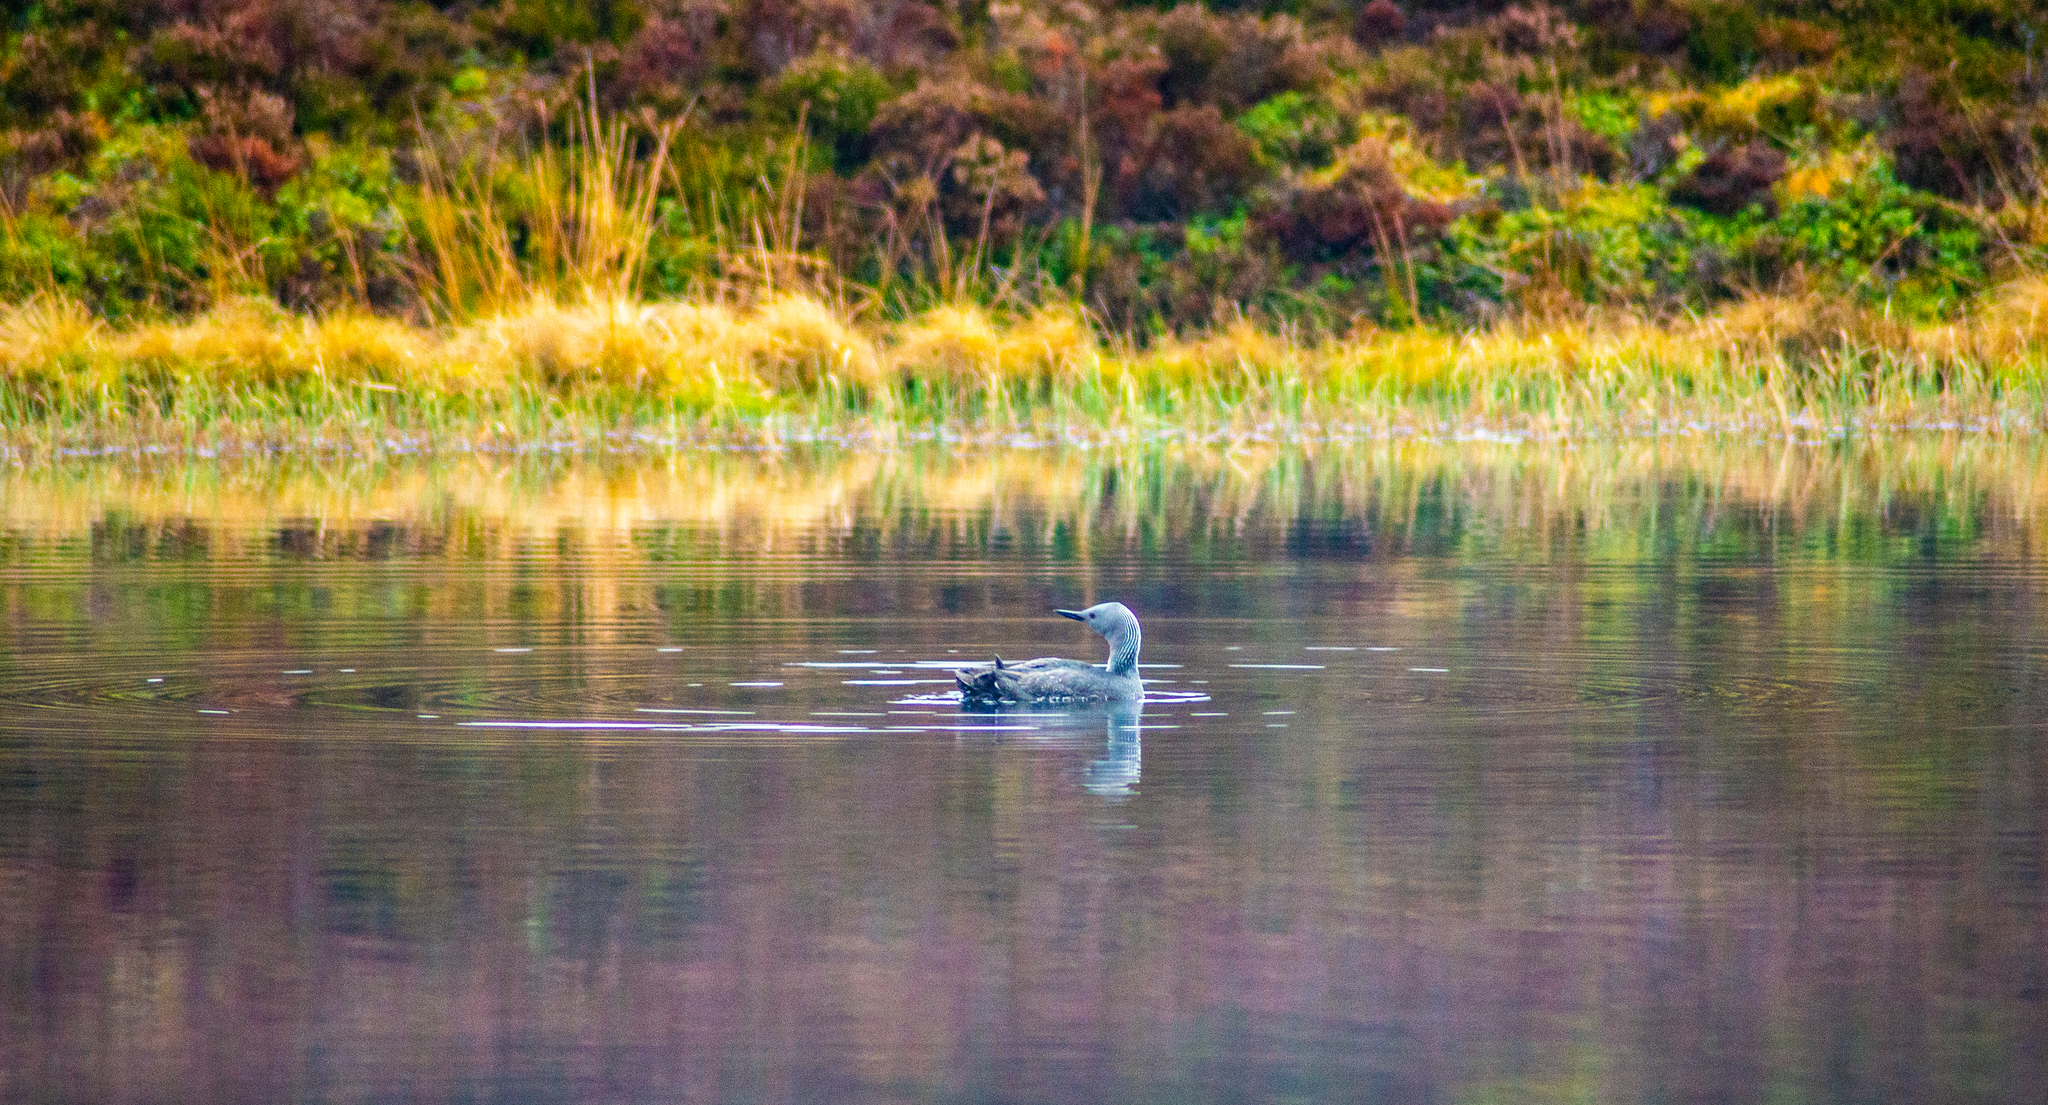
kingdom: Animalia
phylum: Chordata
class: Aves
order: Gaviiformes
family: Gaviidae
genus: Gavia
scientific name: Gavia stellata
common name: Red-throated loon
